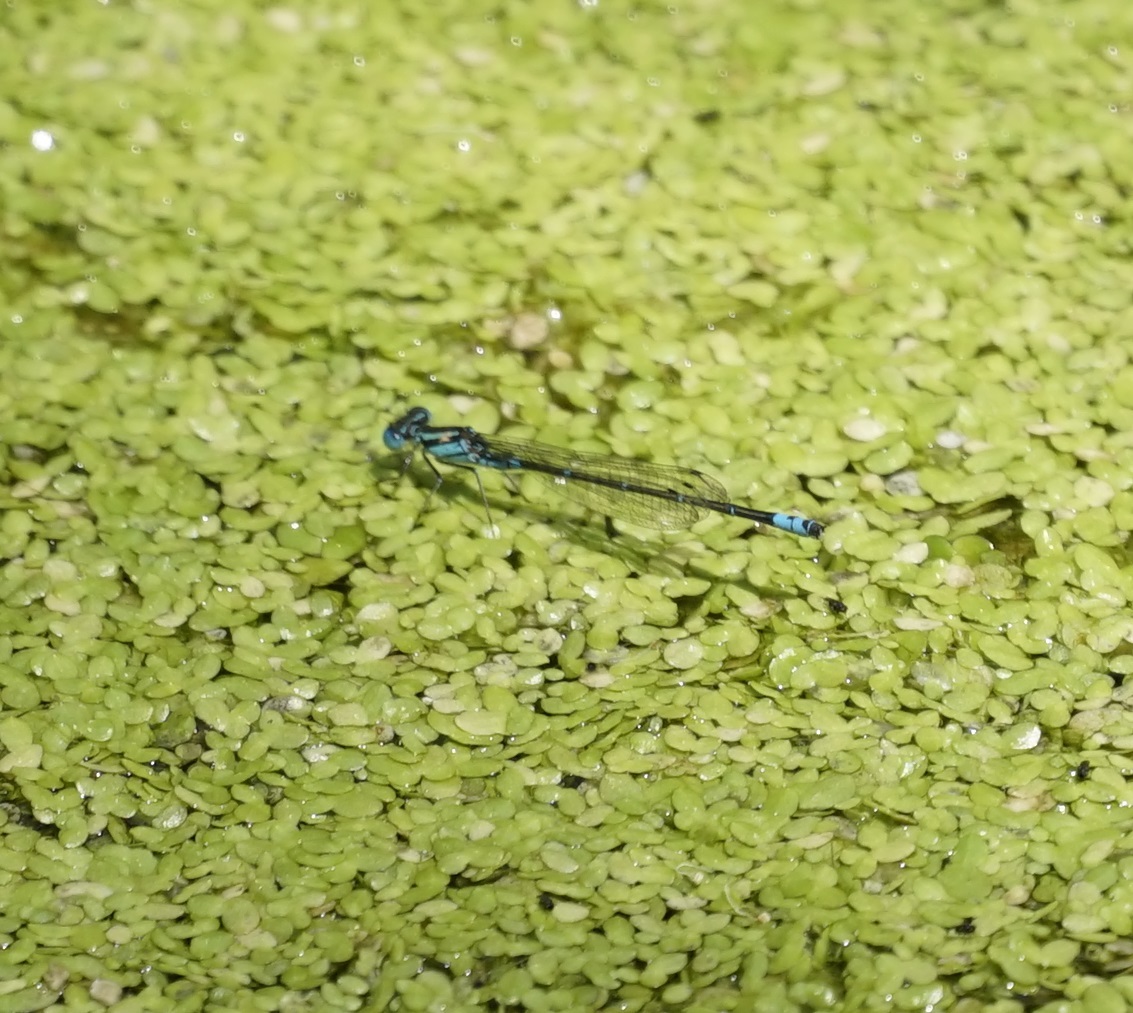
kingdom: Animalia
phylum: Arthropoda
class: Insecta
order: Odonata
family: Coenagrionidae
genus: Austroagrion
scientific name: Austroagrion watsoni
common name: Eastern billabongfly
